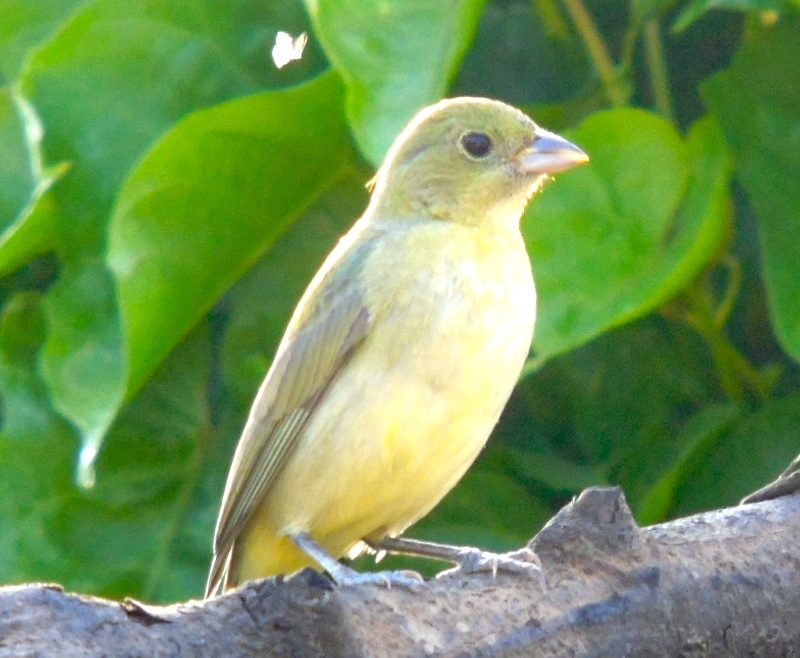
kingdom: Animalia
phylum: Chordata
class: Aves
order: Passeriformes
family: Cardinalidae
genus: Passerina
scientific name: Passerina ciris
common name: Painted bunting
